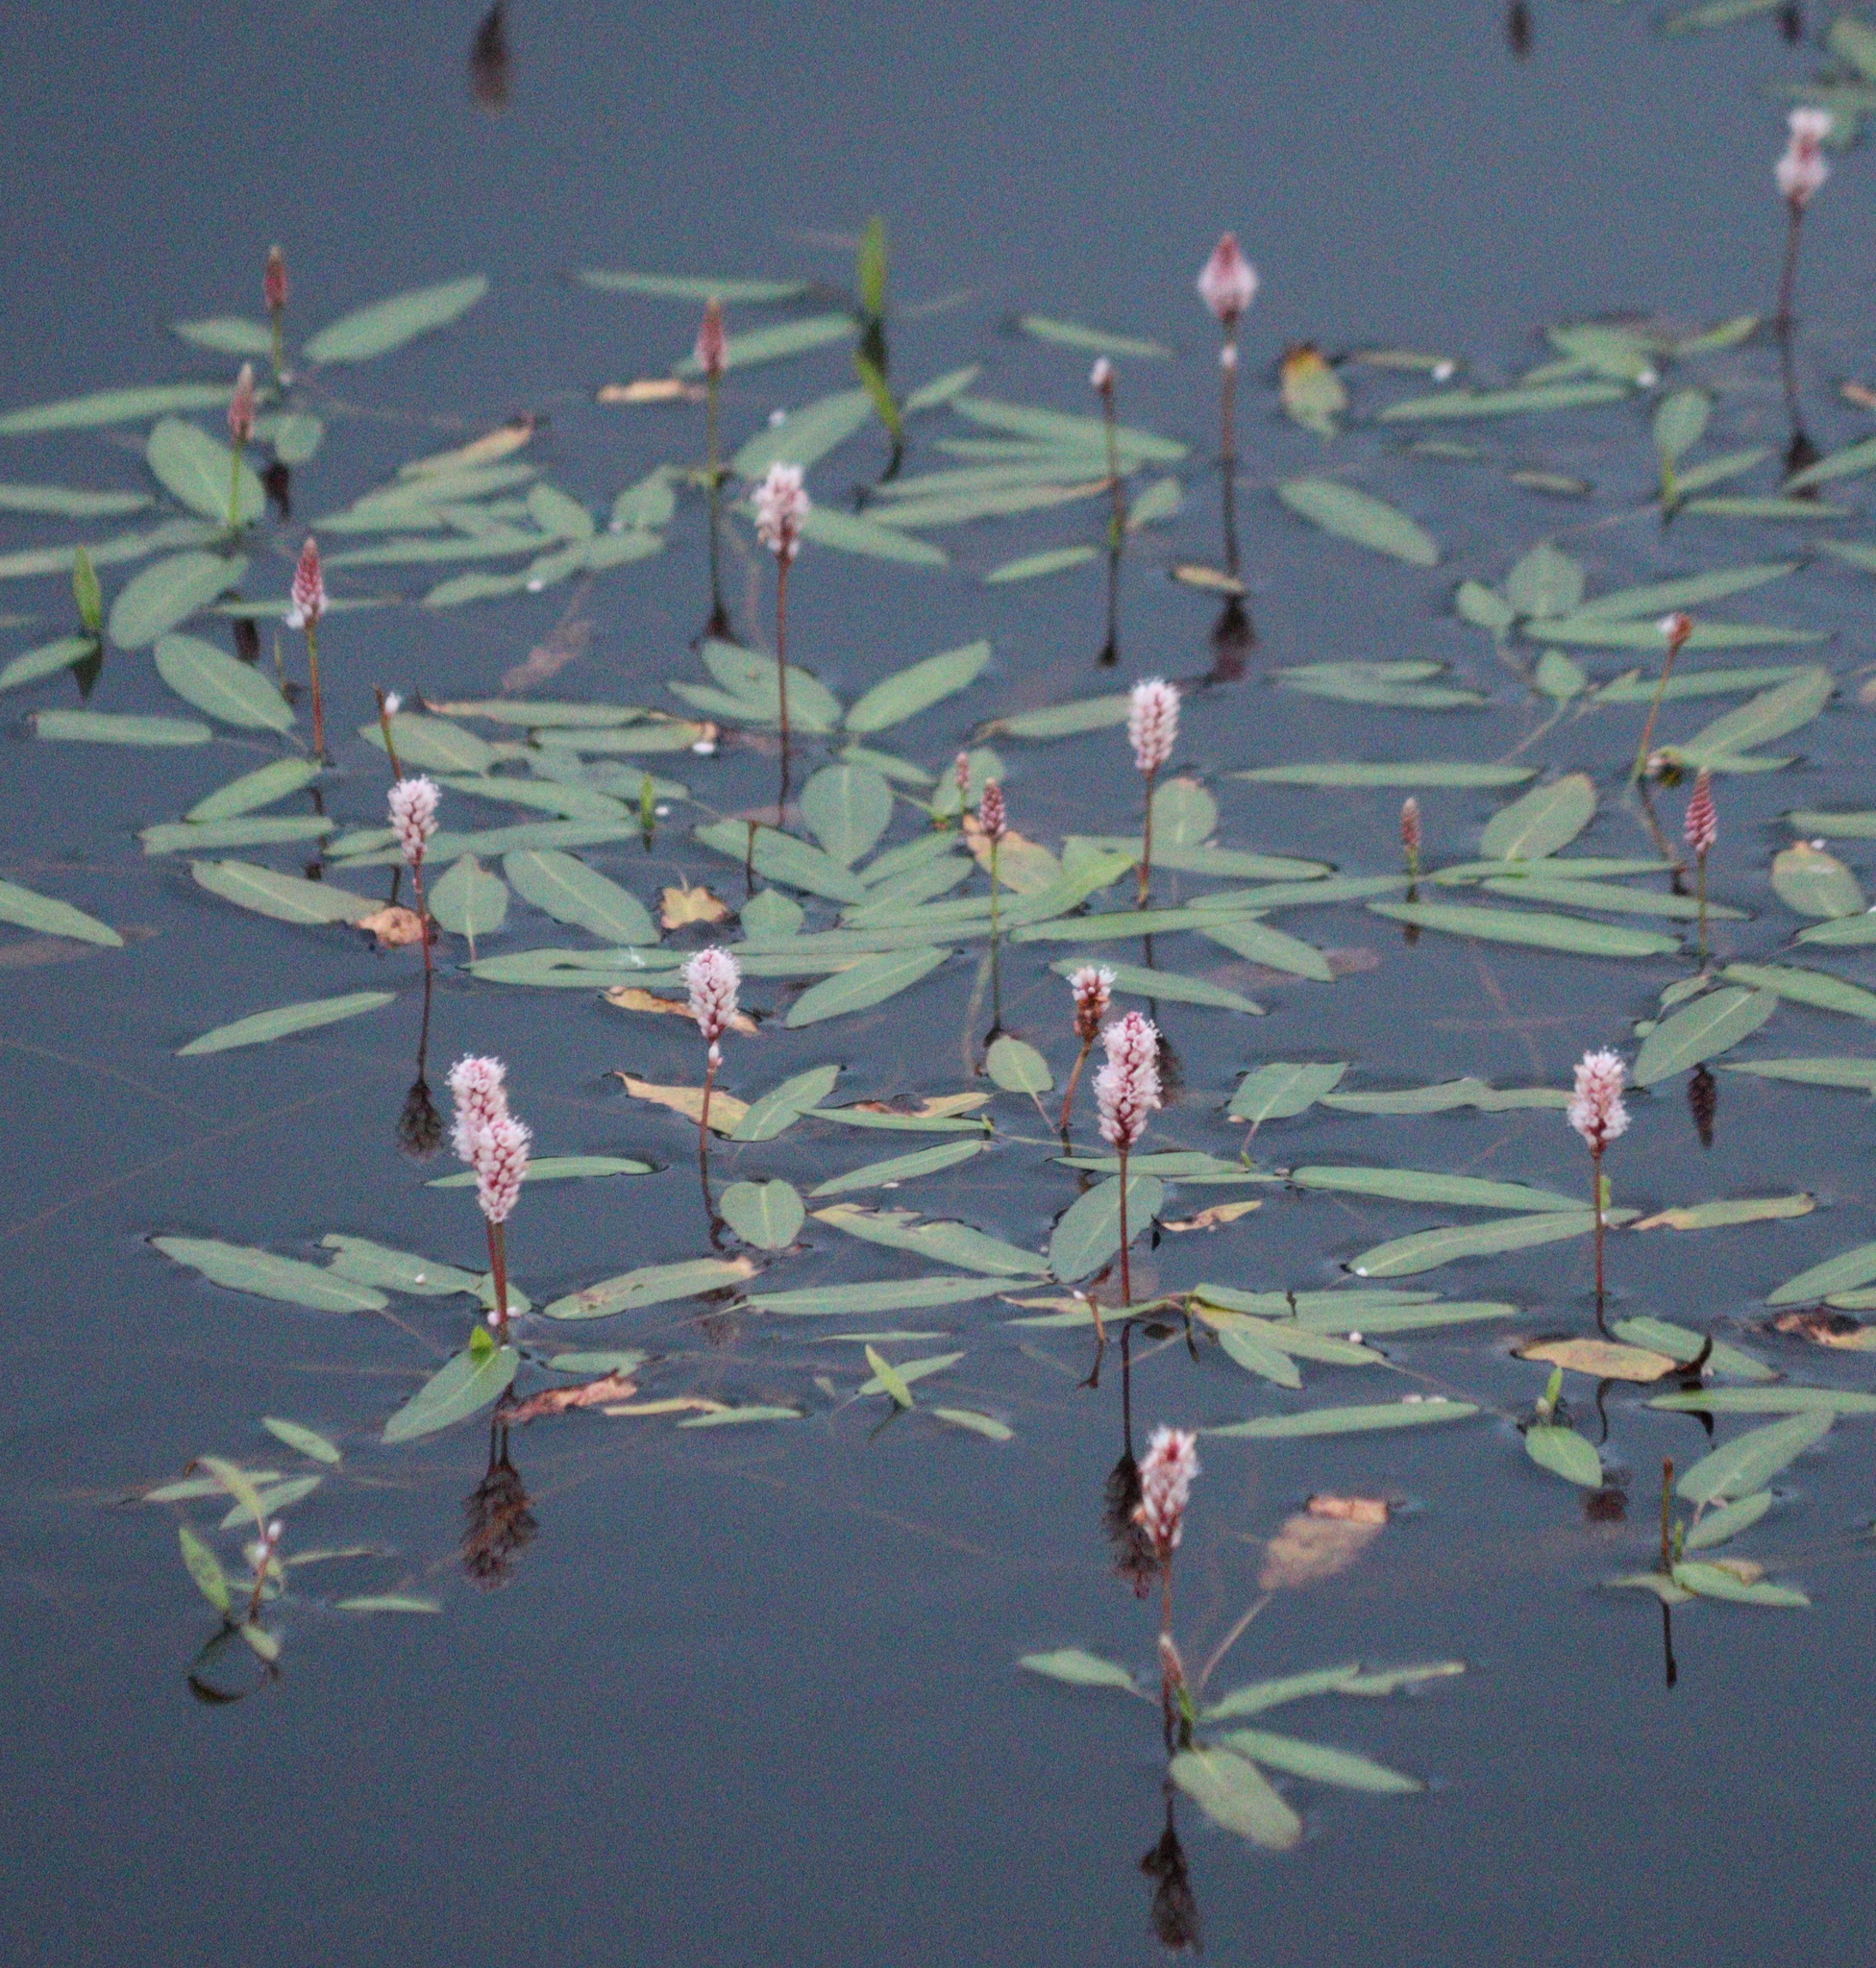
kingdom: Plantae
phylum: Tracheophyta
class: Magnoliopsida
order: Caryophyllales
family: Polygonaceae
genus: Persicaria
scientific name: Persicaria amphibia
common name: Amphibious bistort
